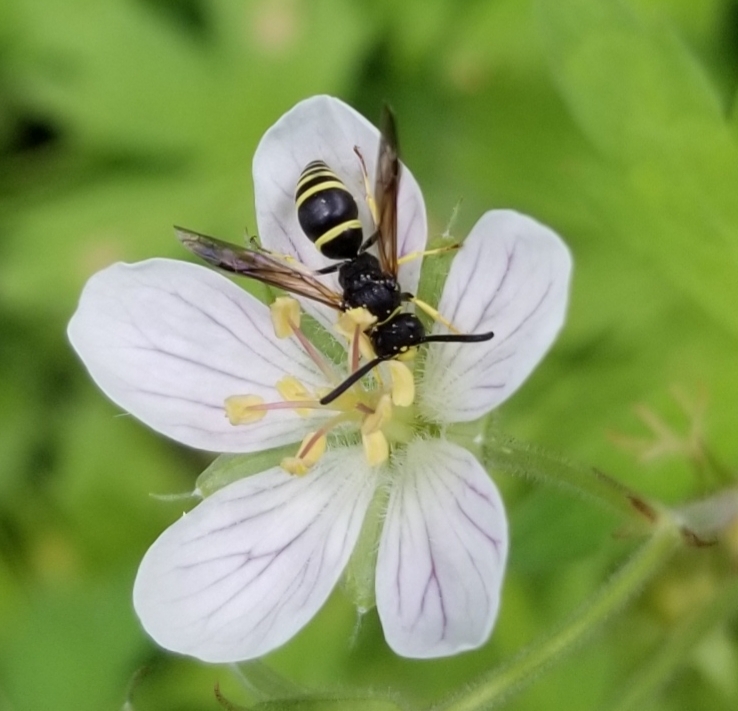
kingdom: Animalia
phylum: Arthropoda
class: Insecta
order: Hymenoptera
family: Vespidae
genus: Ancistrocerus
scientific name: Ancistrocerus
